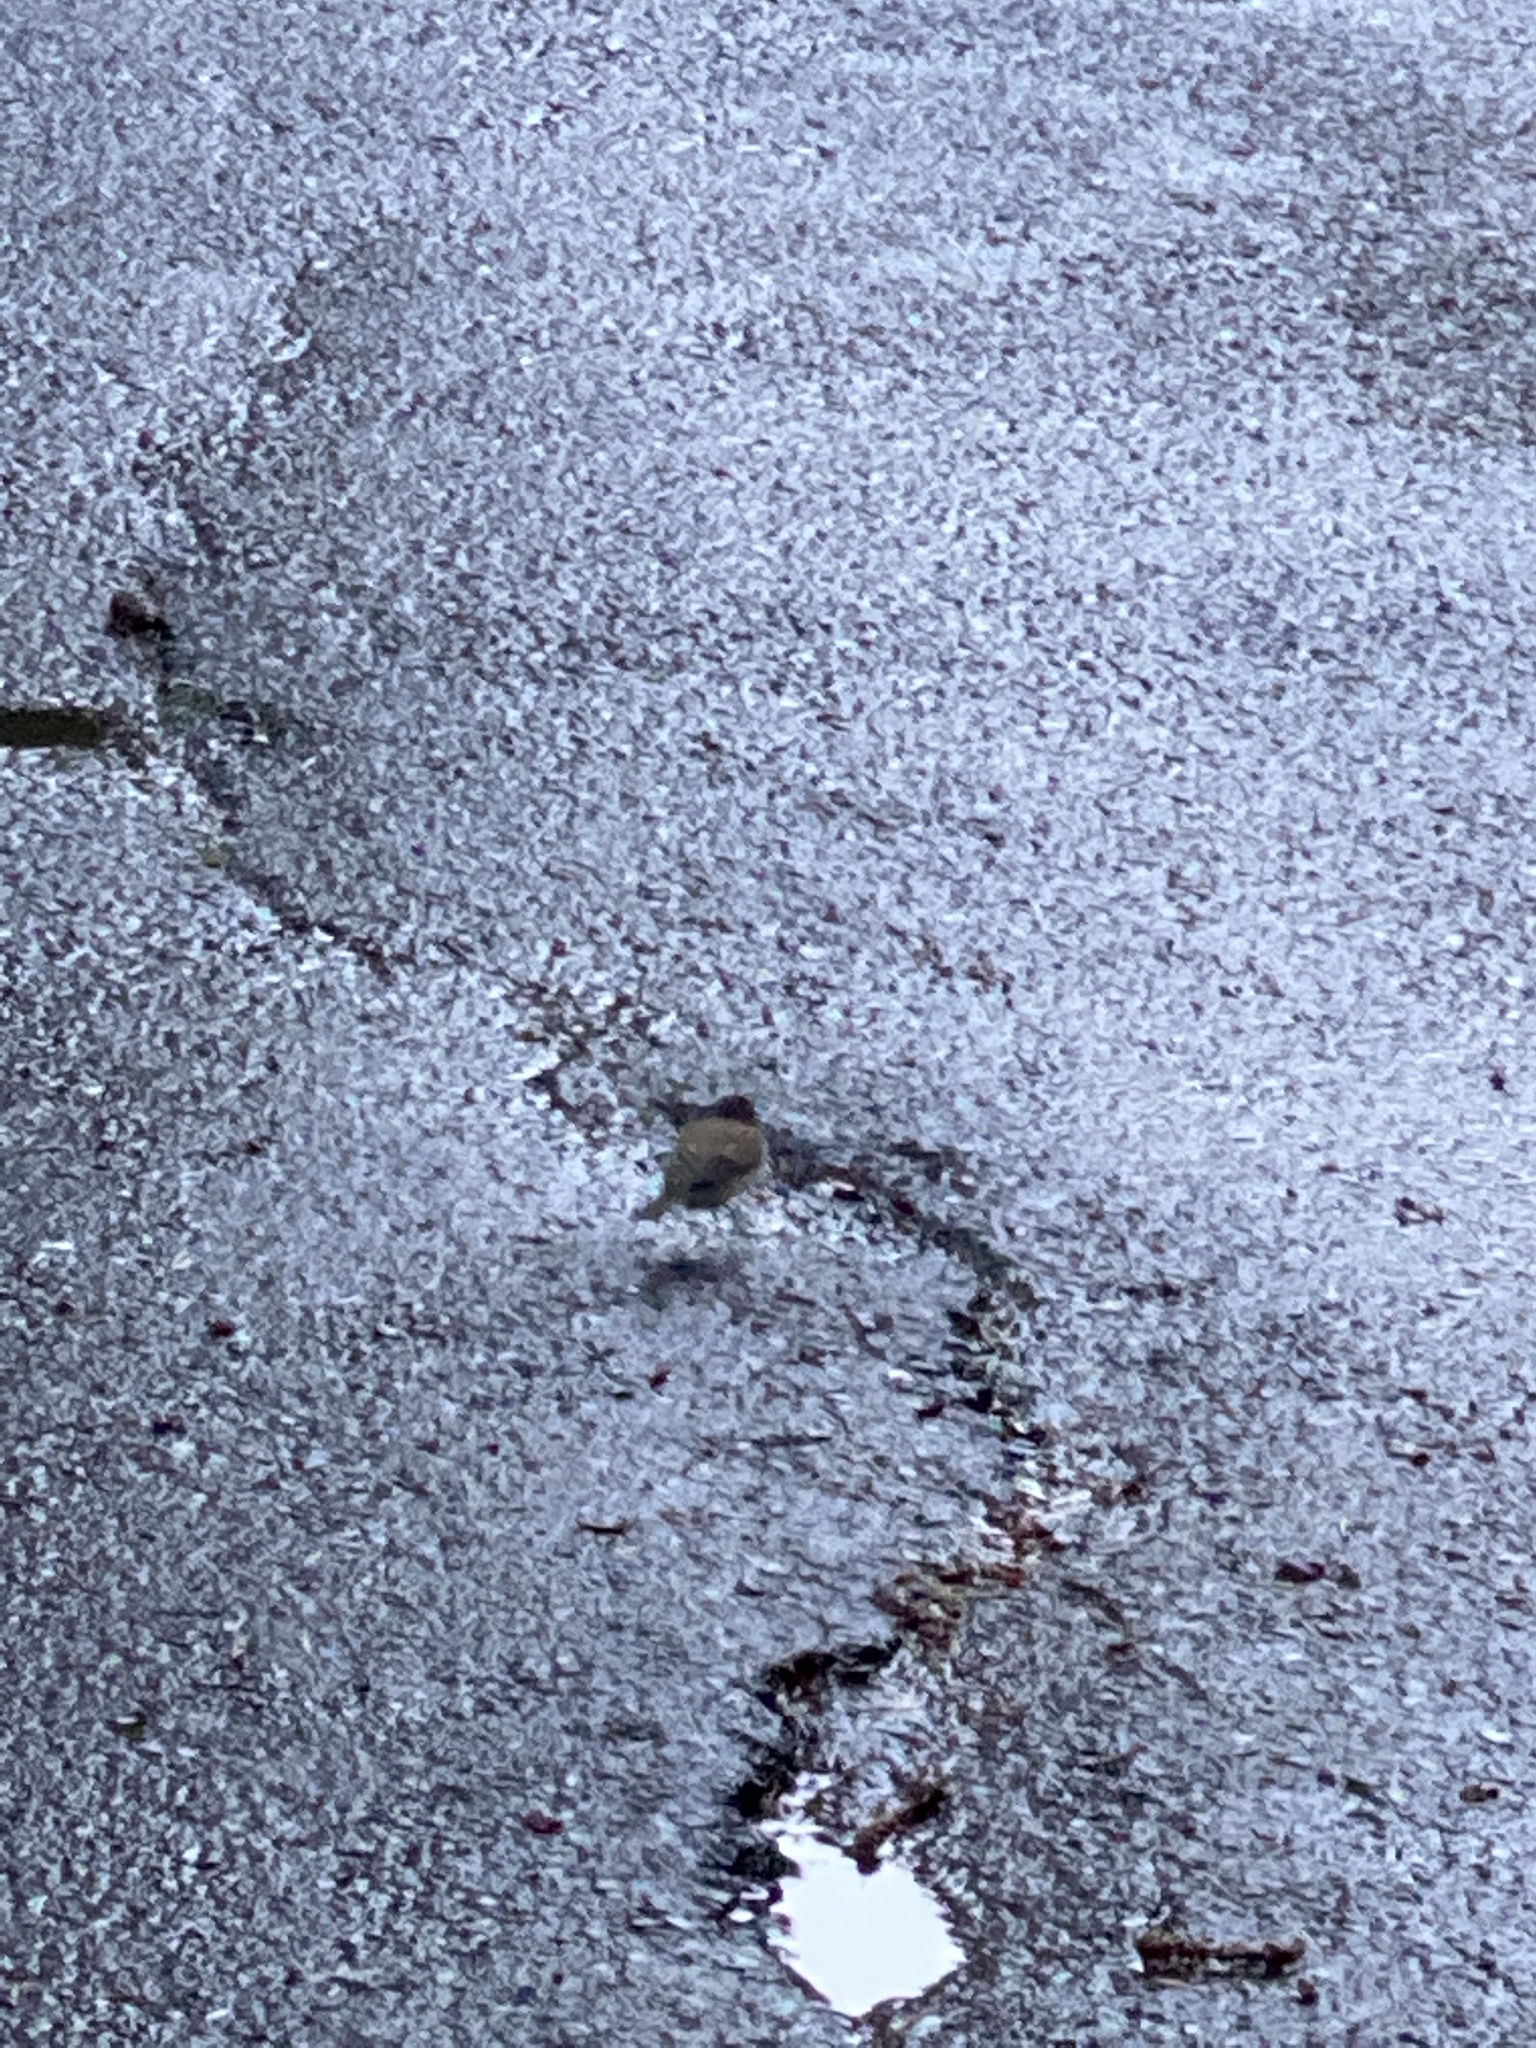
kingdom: Animalia
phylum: Chordata
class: Aves
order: Passeriformes
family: Passerellidae
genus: Junco
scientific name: Junco hyemalis
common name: Dark-eyed junco
